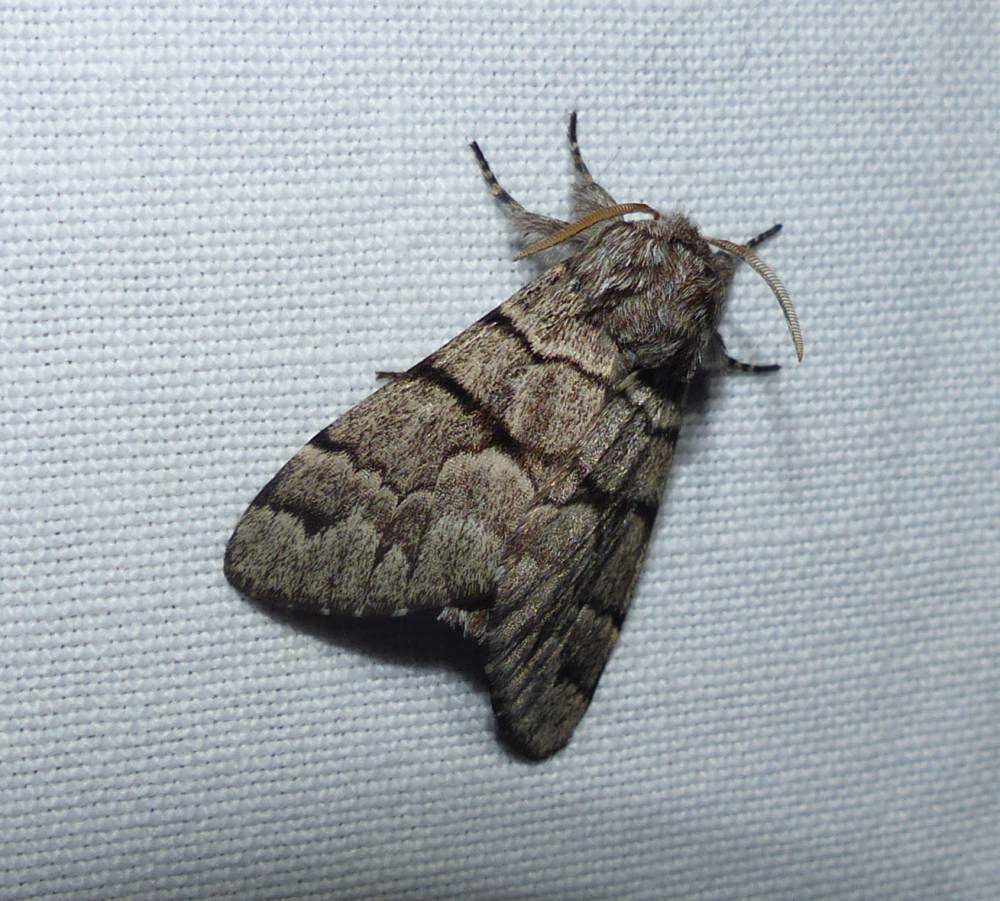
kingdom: Animalia
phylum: Arthropoda
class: Insecta
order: Lepidoptera
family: Noctuidae
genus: Panthea
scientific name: Panthea furcilla
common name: Eastern panthea moth
